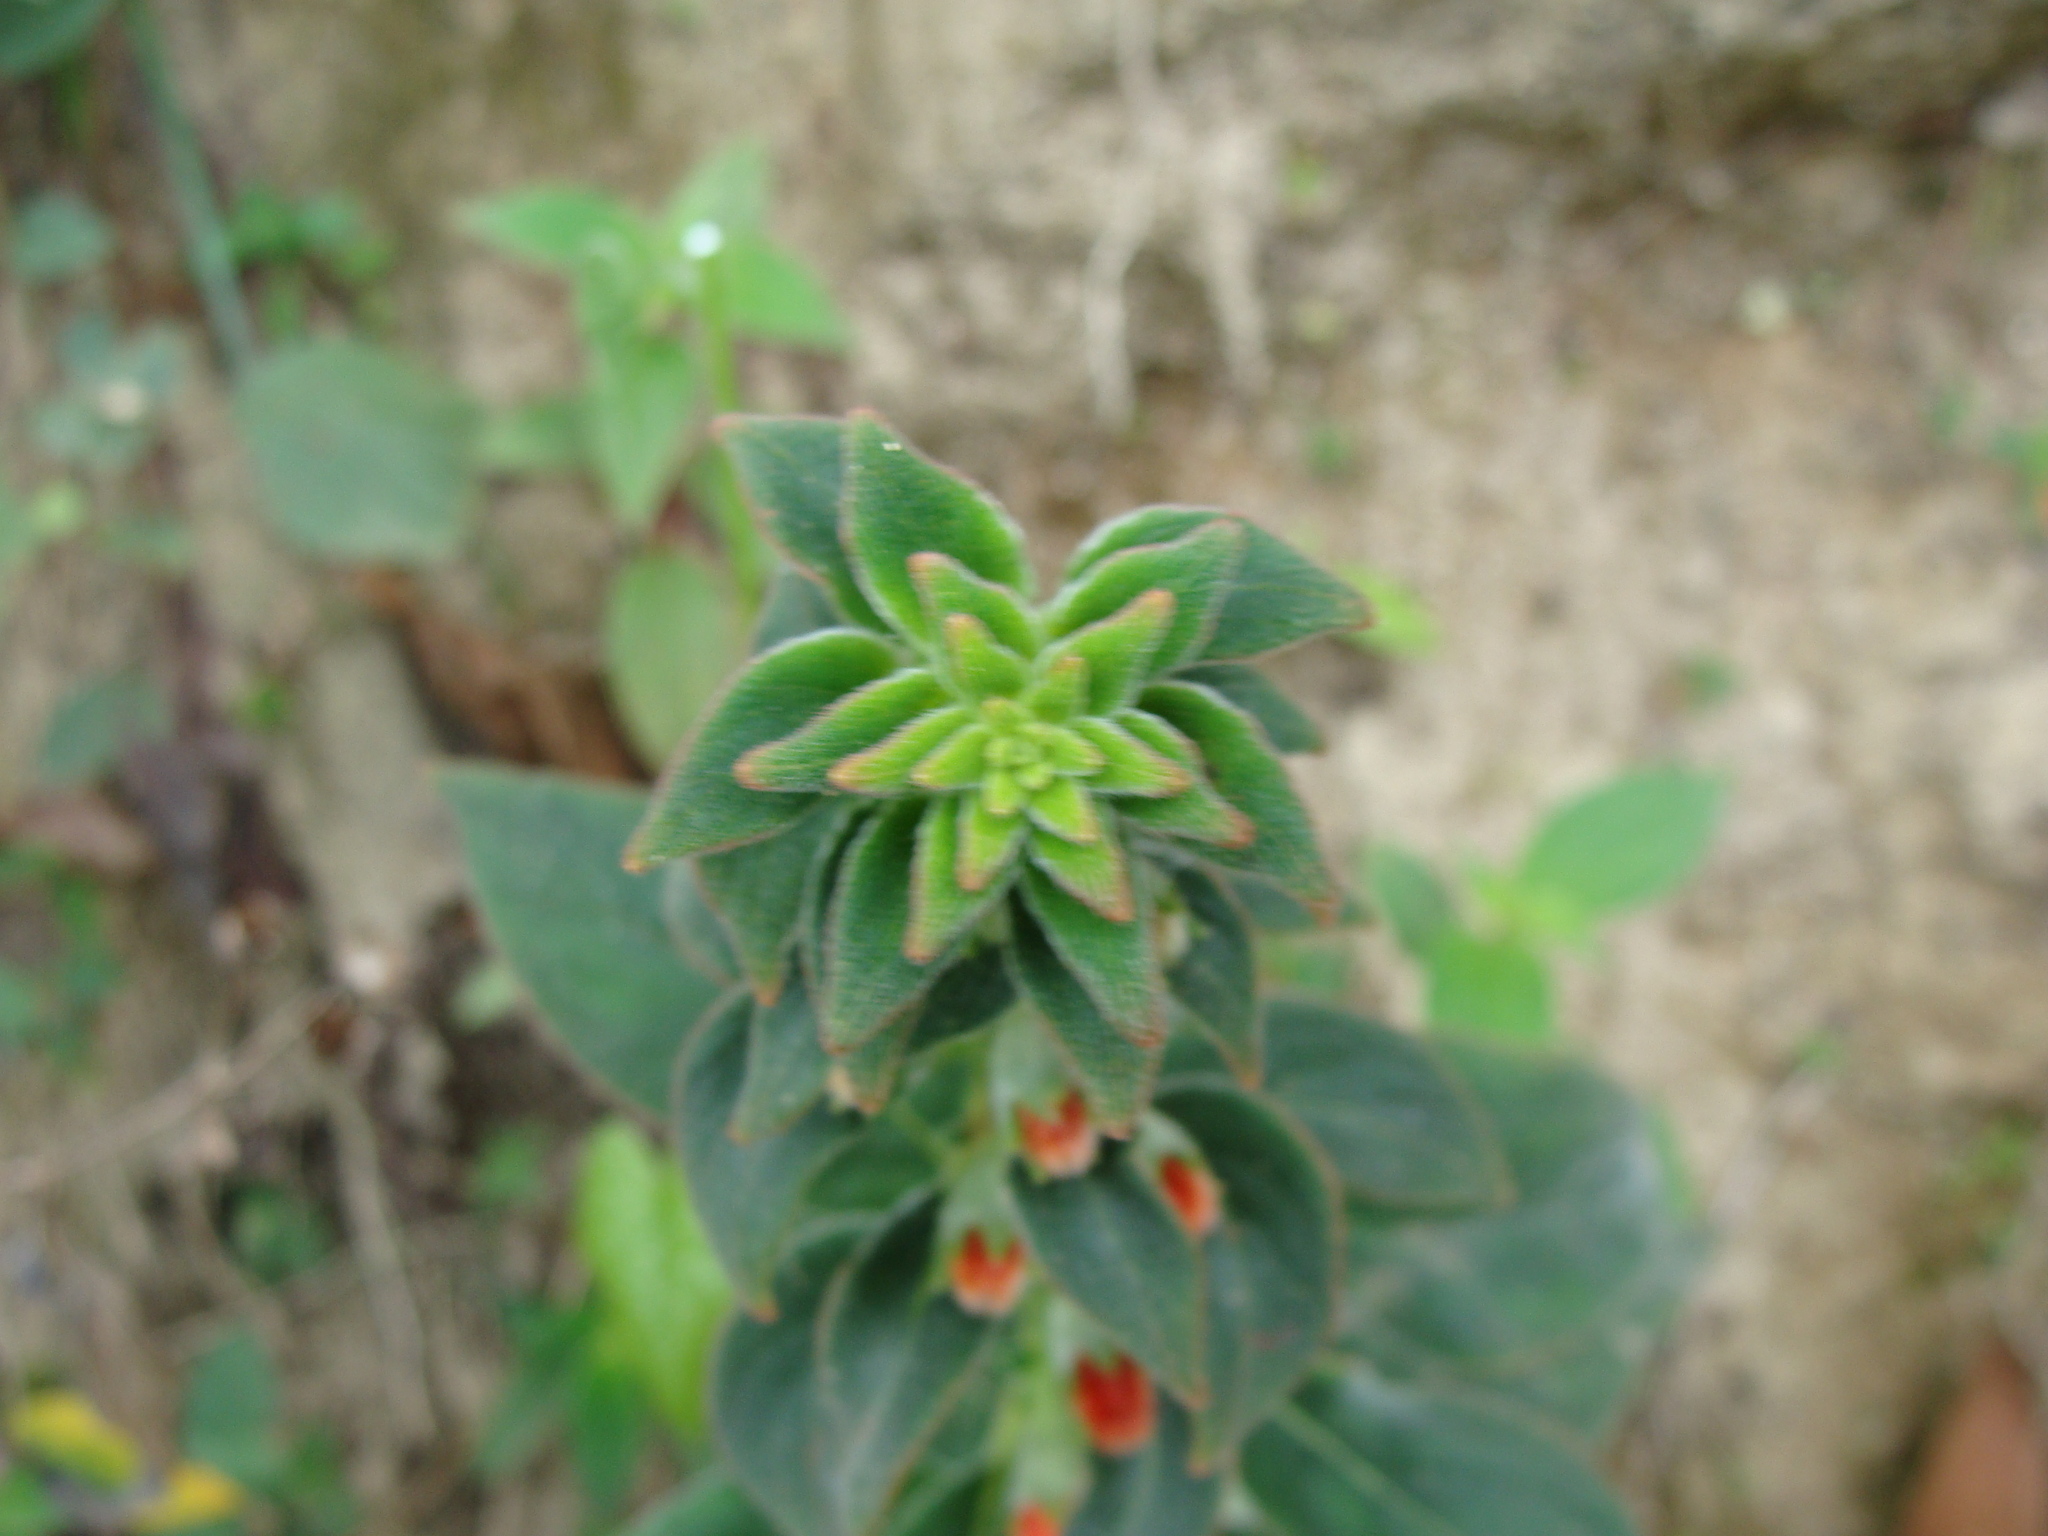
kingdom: Plantae
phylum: Tracheophyta
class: Magnoliopsida
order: Lamiales
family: Gesneriaceae
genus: Kohleria
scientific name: Kohleria spicata
